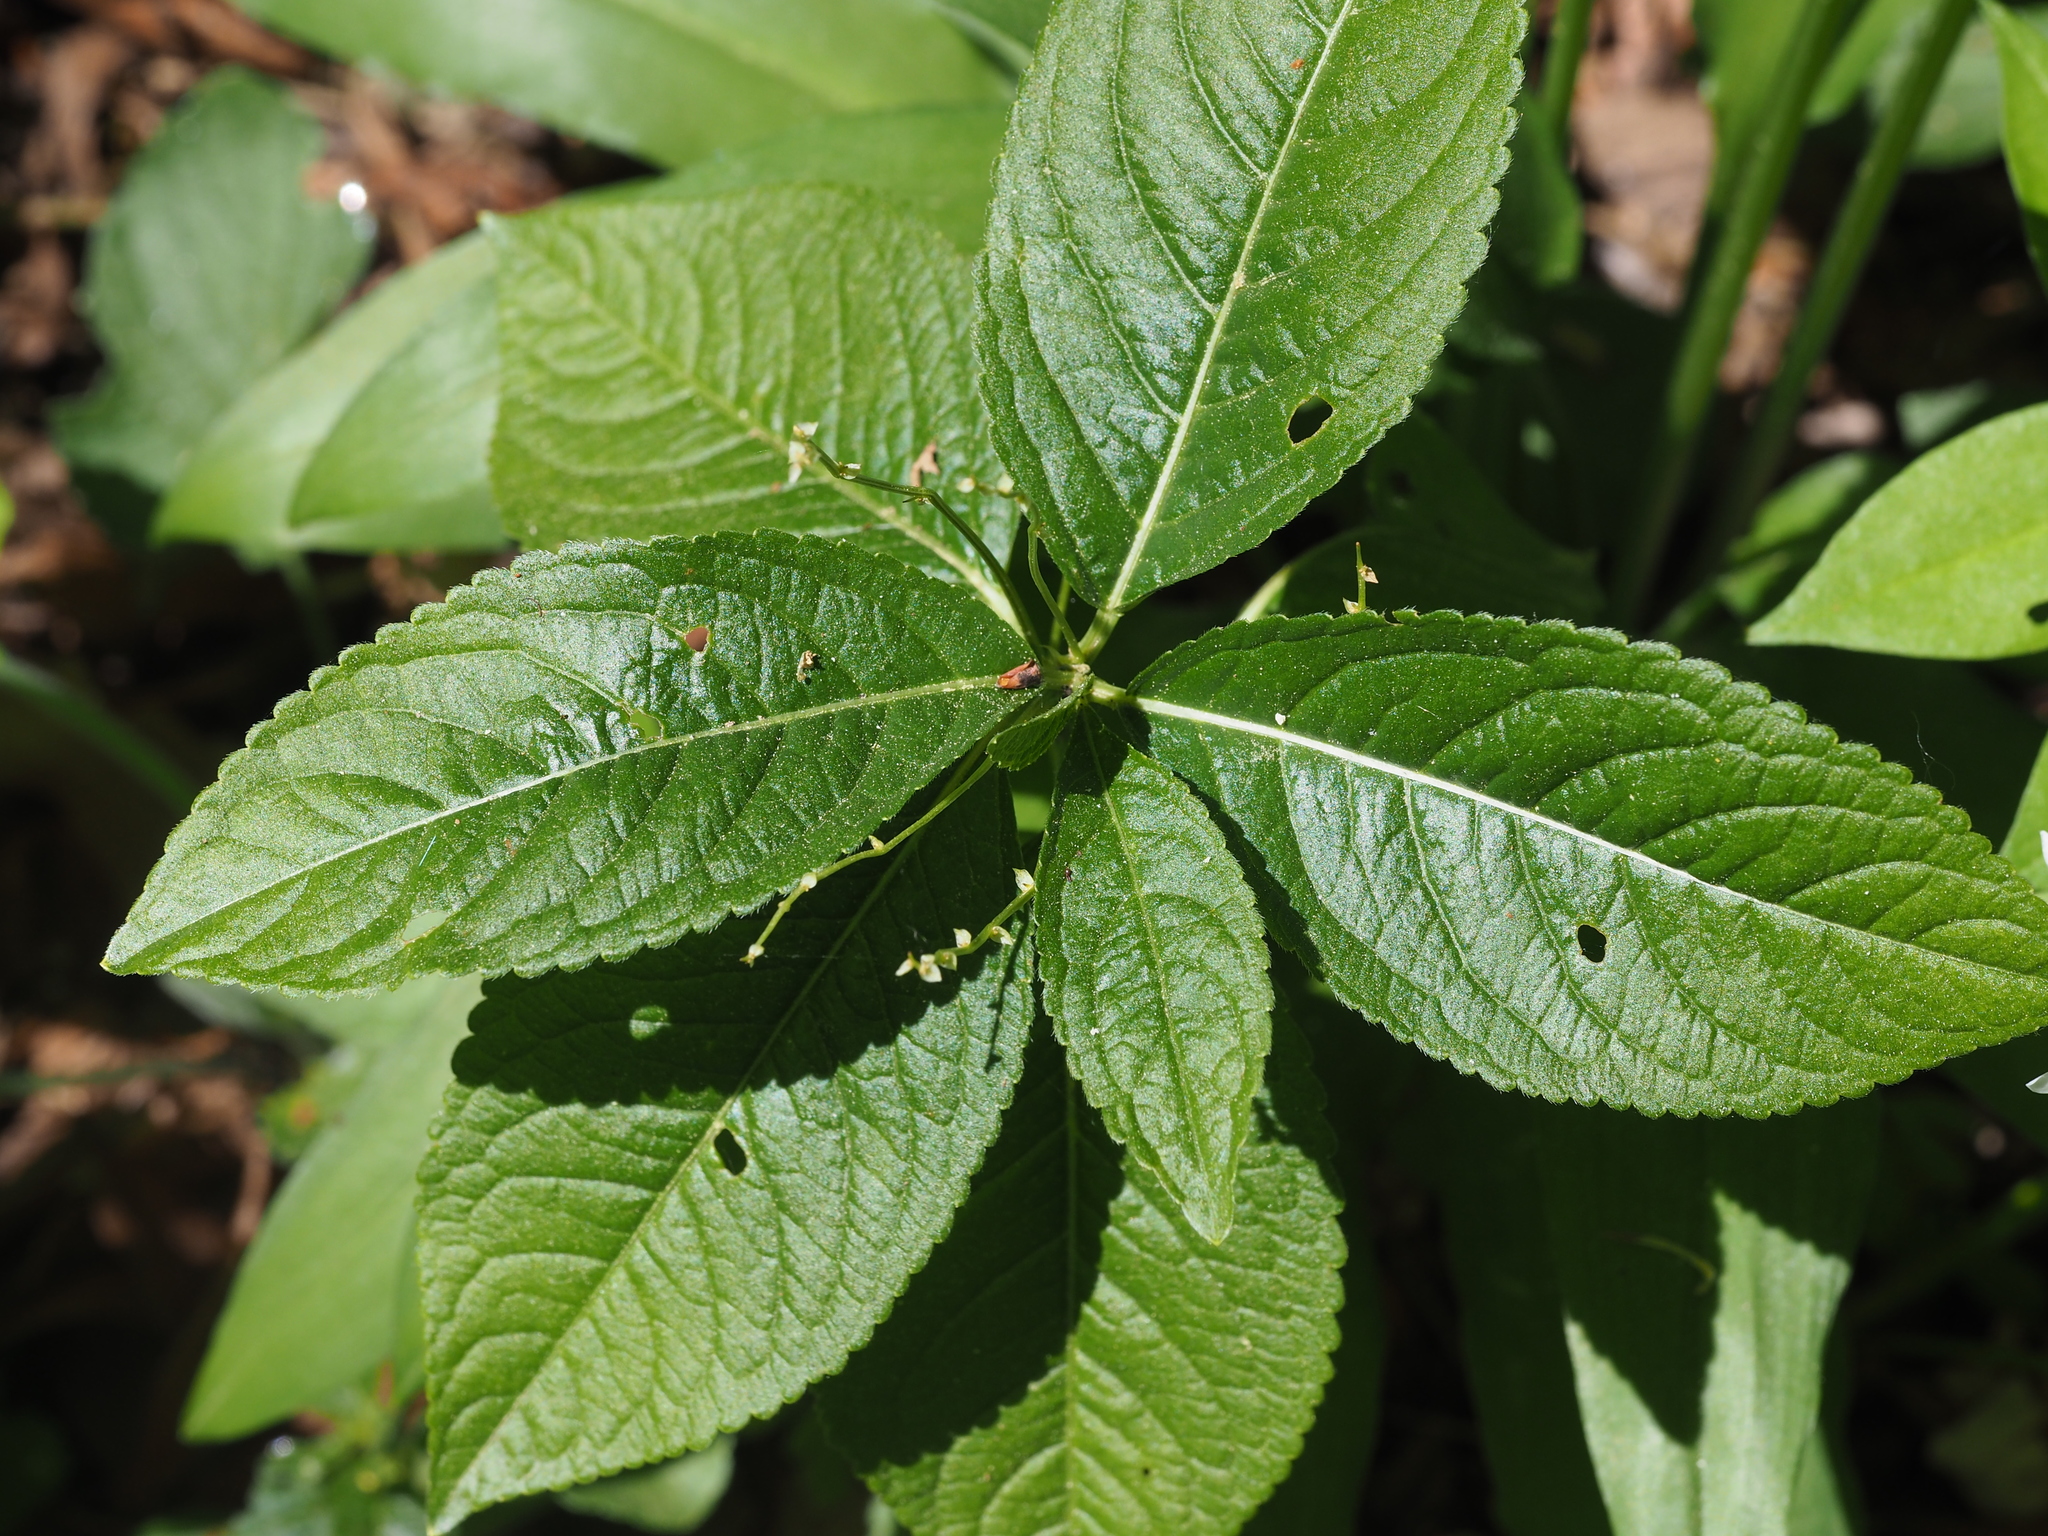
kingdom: Plantae
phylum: Tracheophyta
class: Magnoliopsida
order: Malpighiales
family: Euphorbiaceae
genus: Mercurialis
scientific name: Mercurialis perennis
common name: Dog mercury
